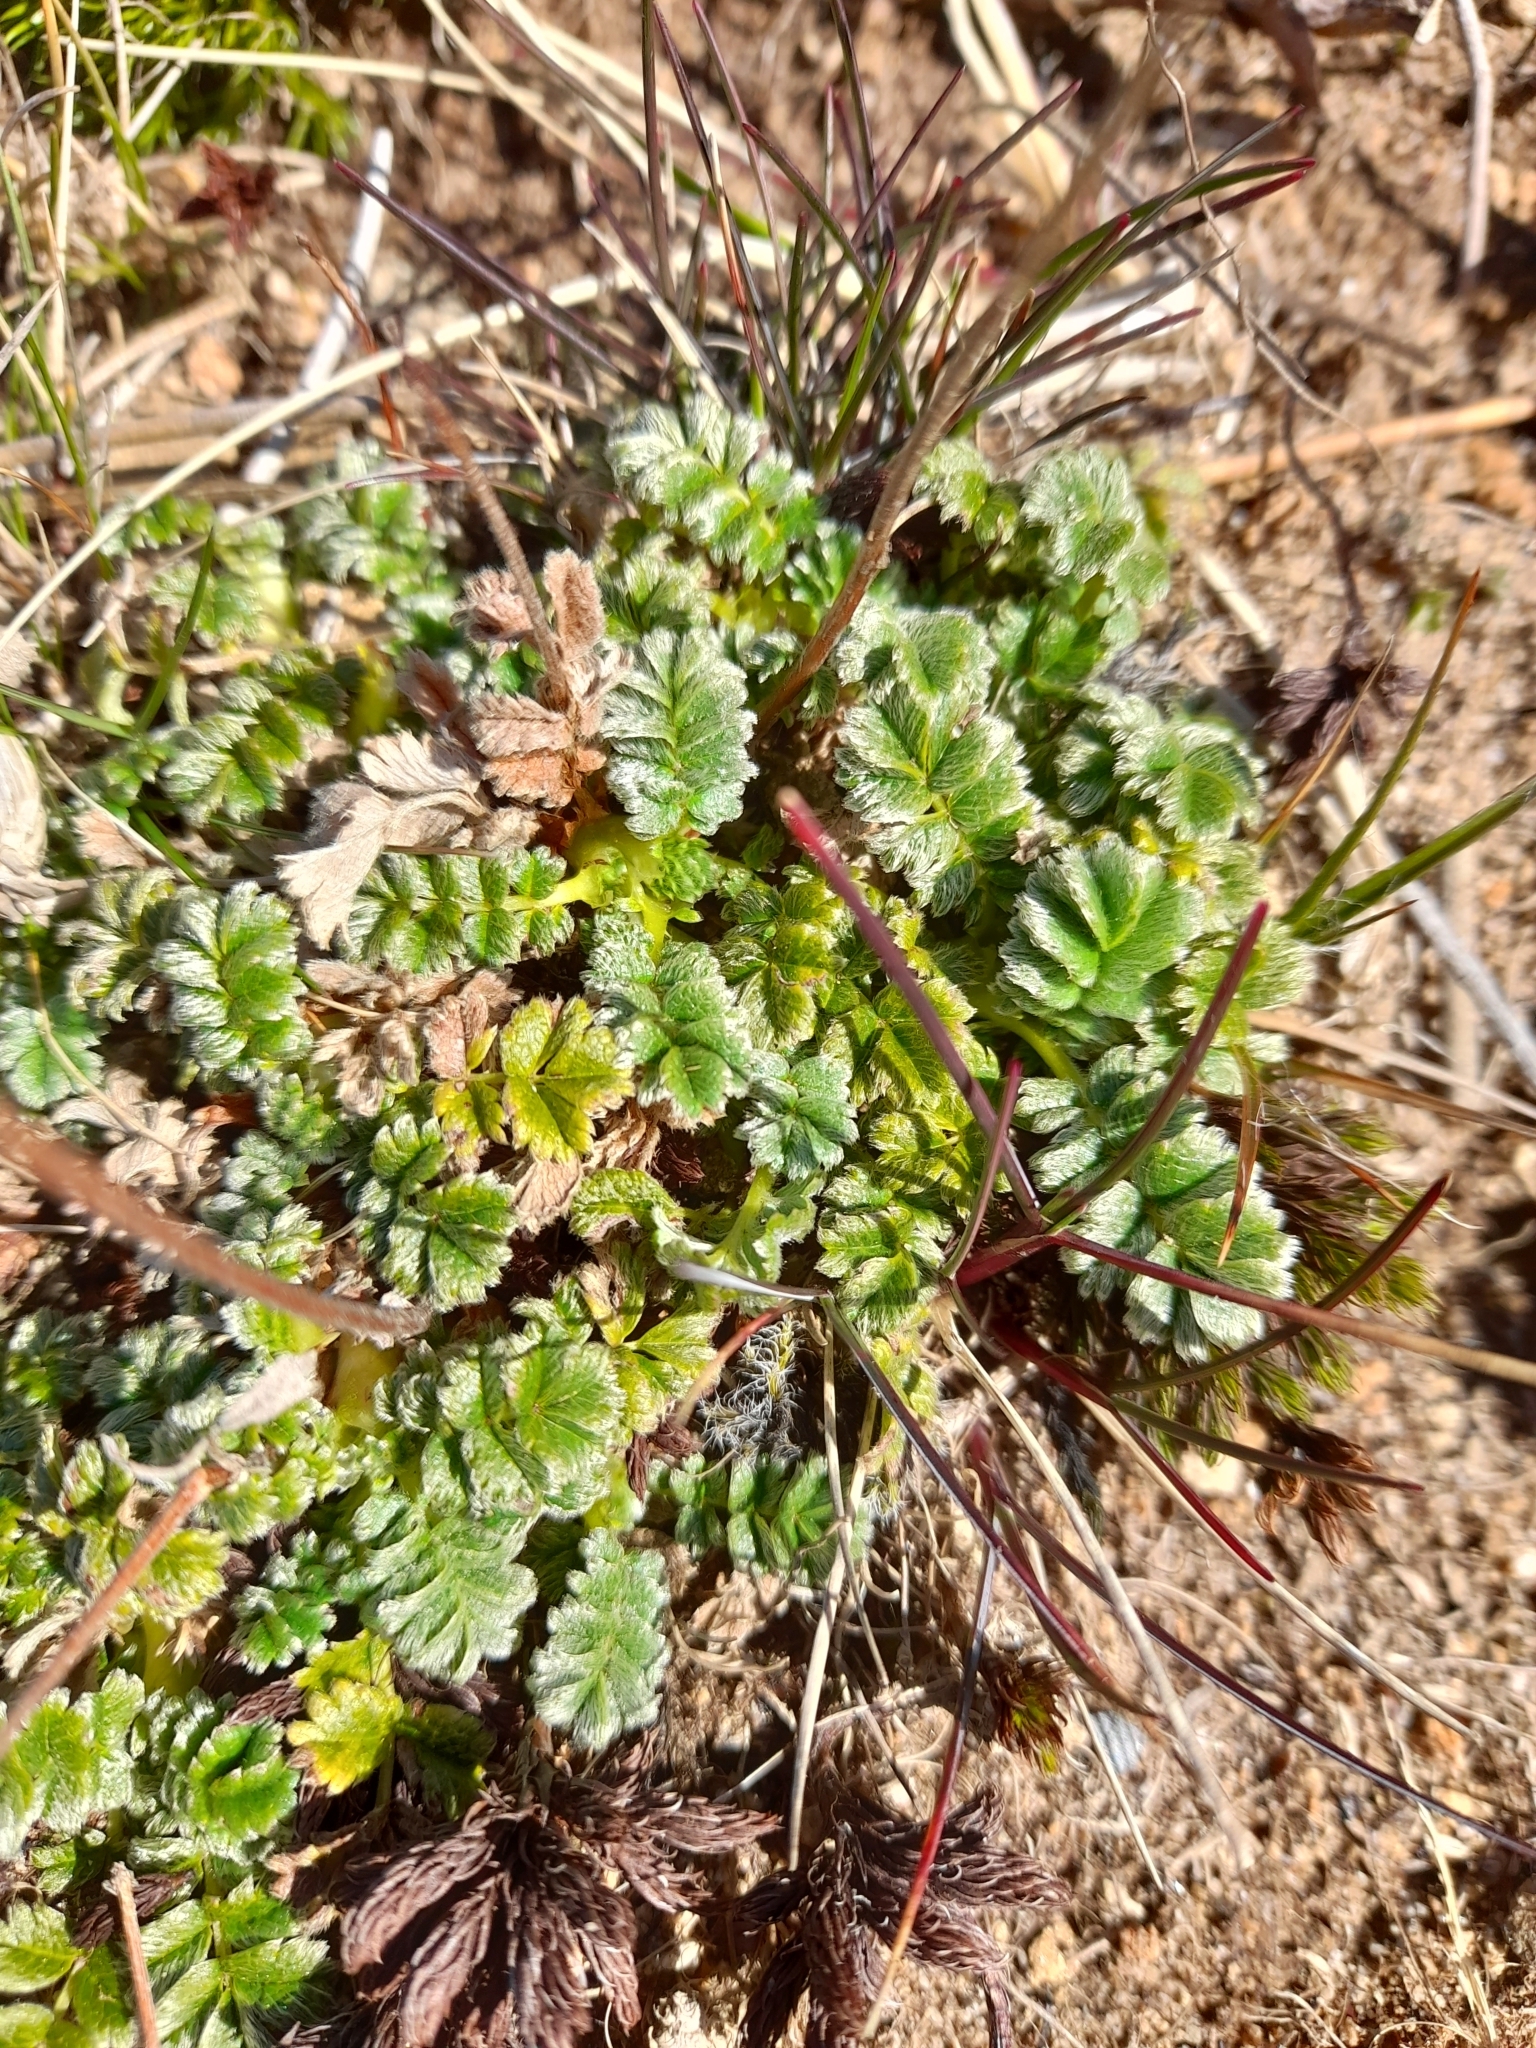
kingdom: Plantae
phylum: Tracheophyta
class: Magnoliopsida
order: Rosales
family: Rosaceae
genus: Acaena
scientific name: Acaena antarctica
